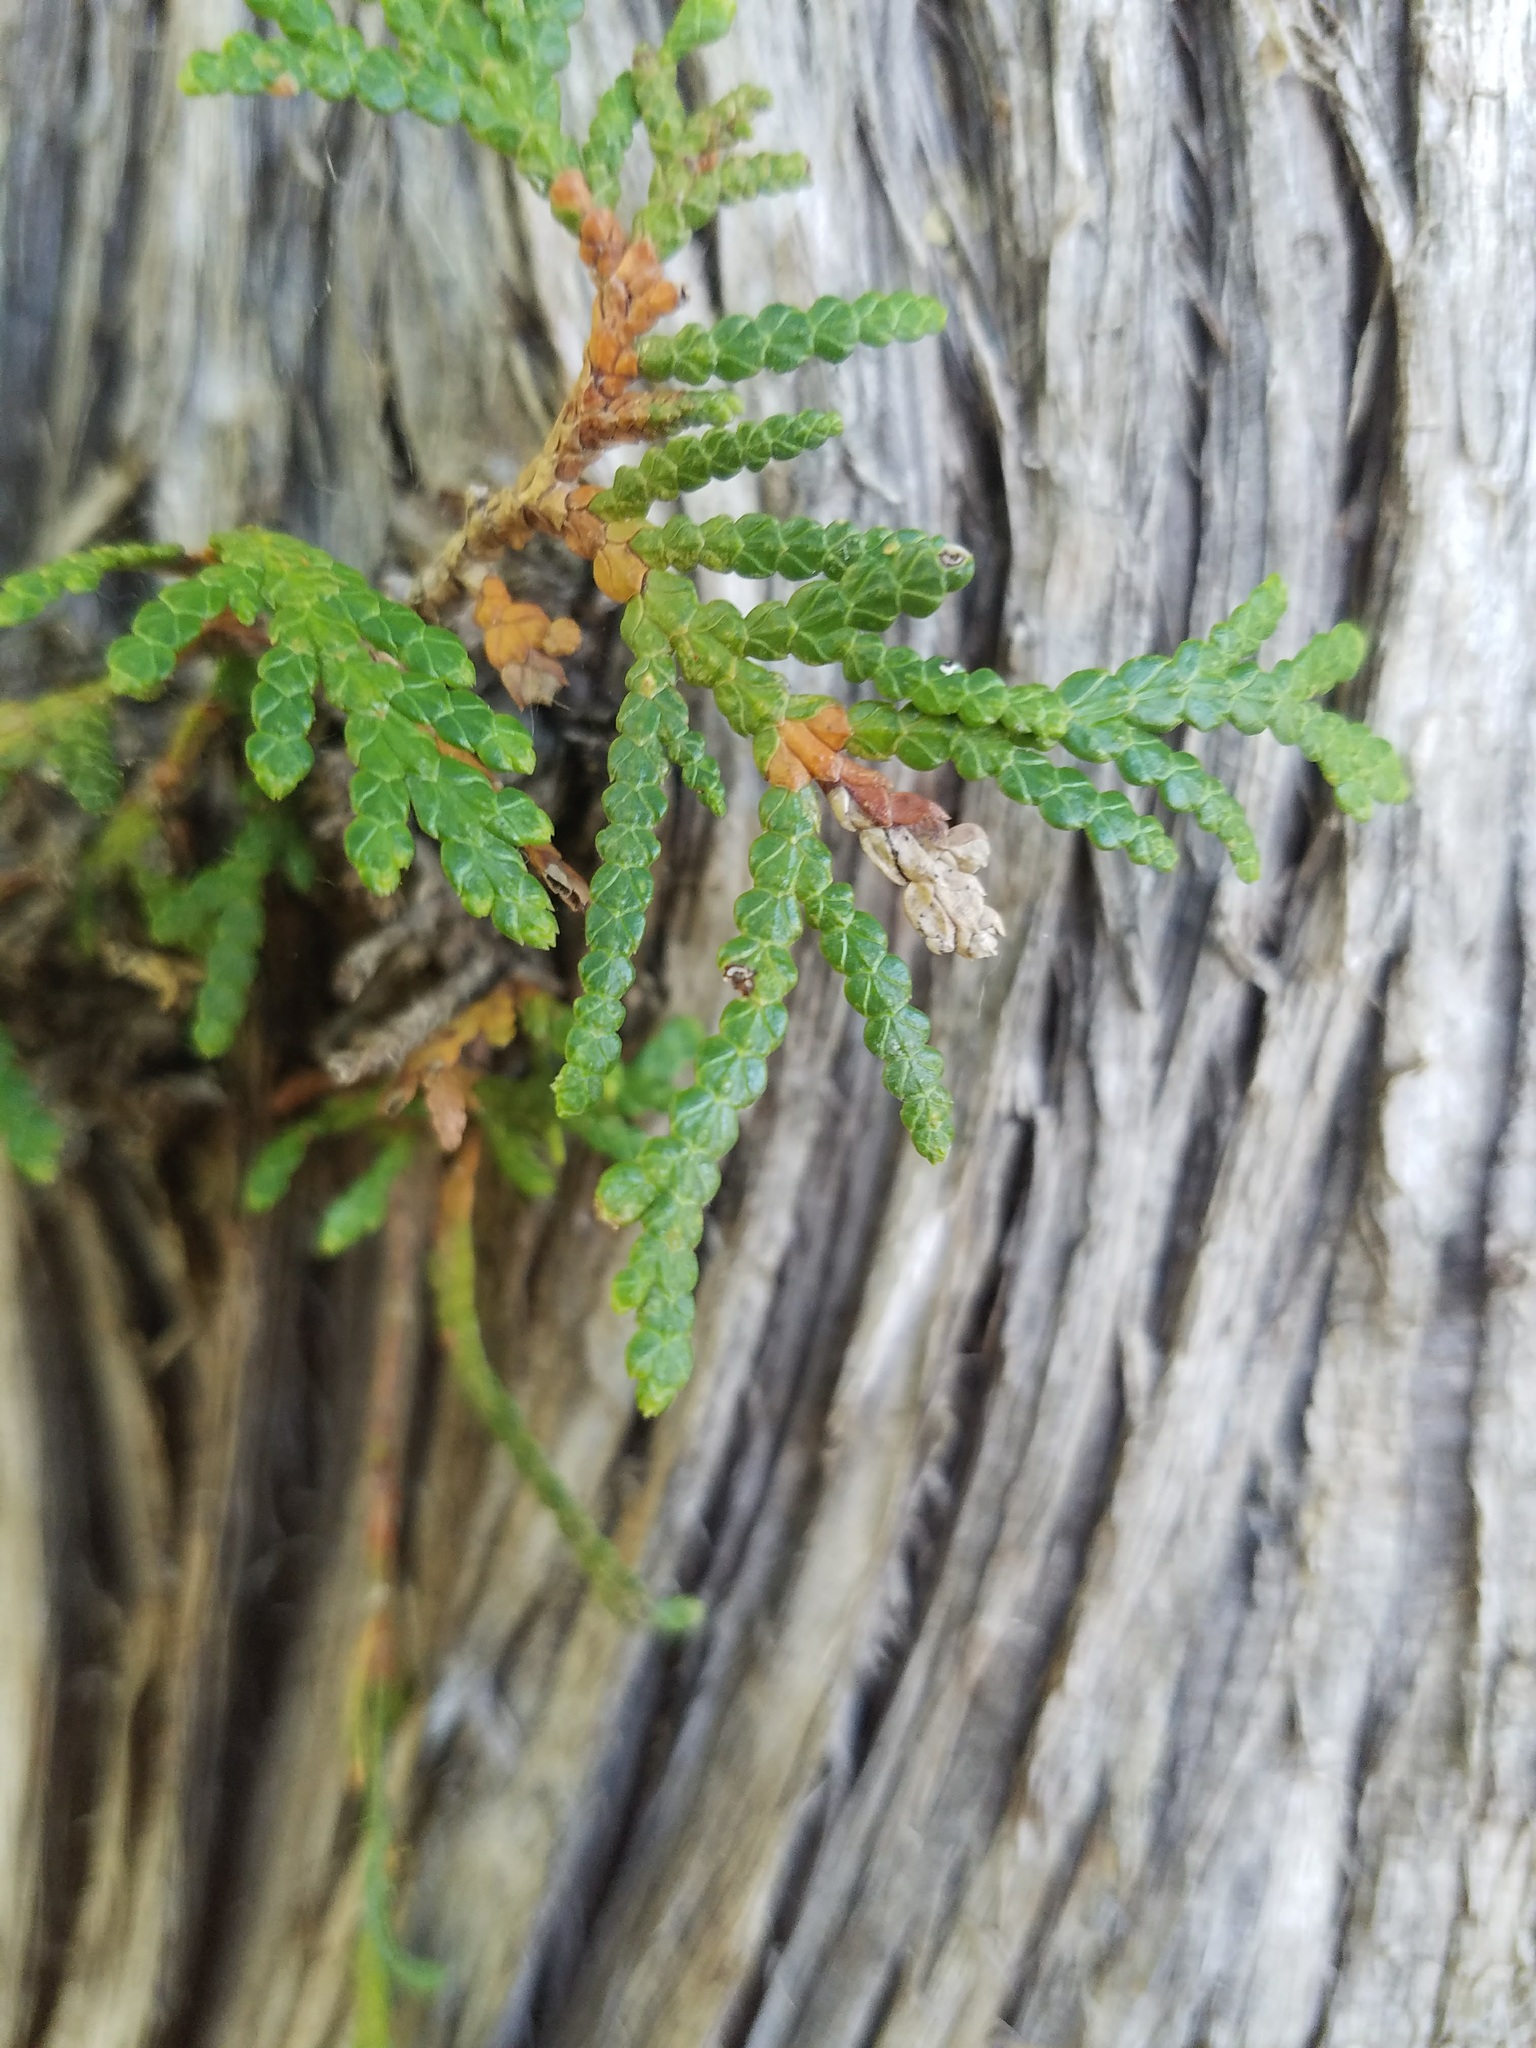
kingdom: Plantae
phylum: Tracheophyta
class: Pinopsida
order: Pinales
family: Cupressaceae
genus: Thuja
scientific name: Thuja occidentalis
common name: Northern white-cedar
